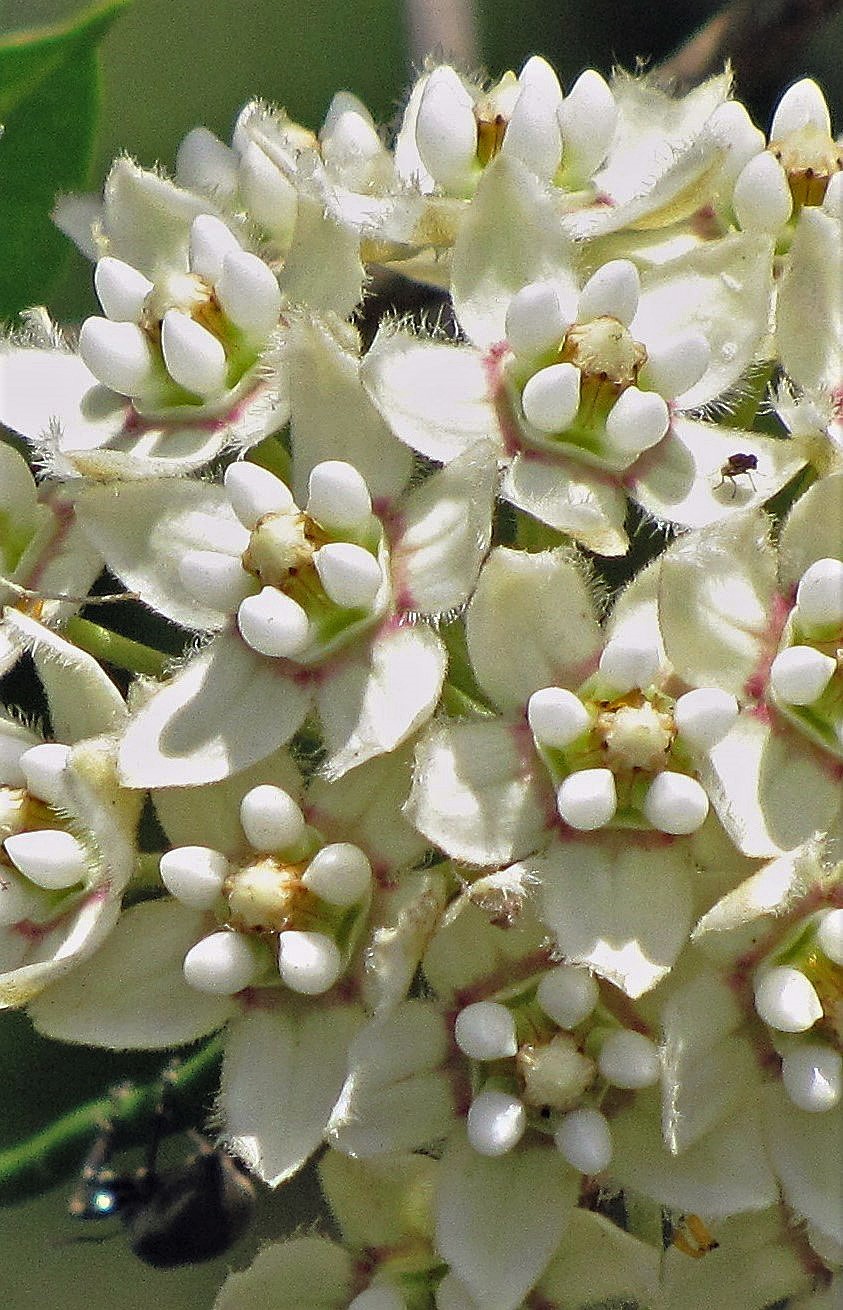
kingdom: Plantae
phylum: Tracheophyta
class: Magnoliopsida
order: Gentianales
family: Apocynaceae
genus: Funastrum
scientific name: Funastrum clausum
